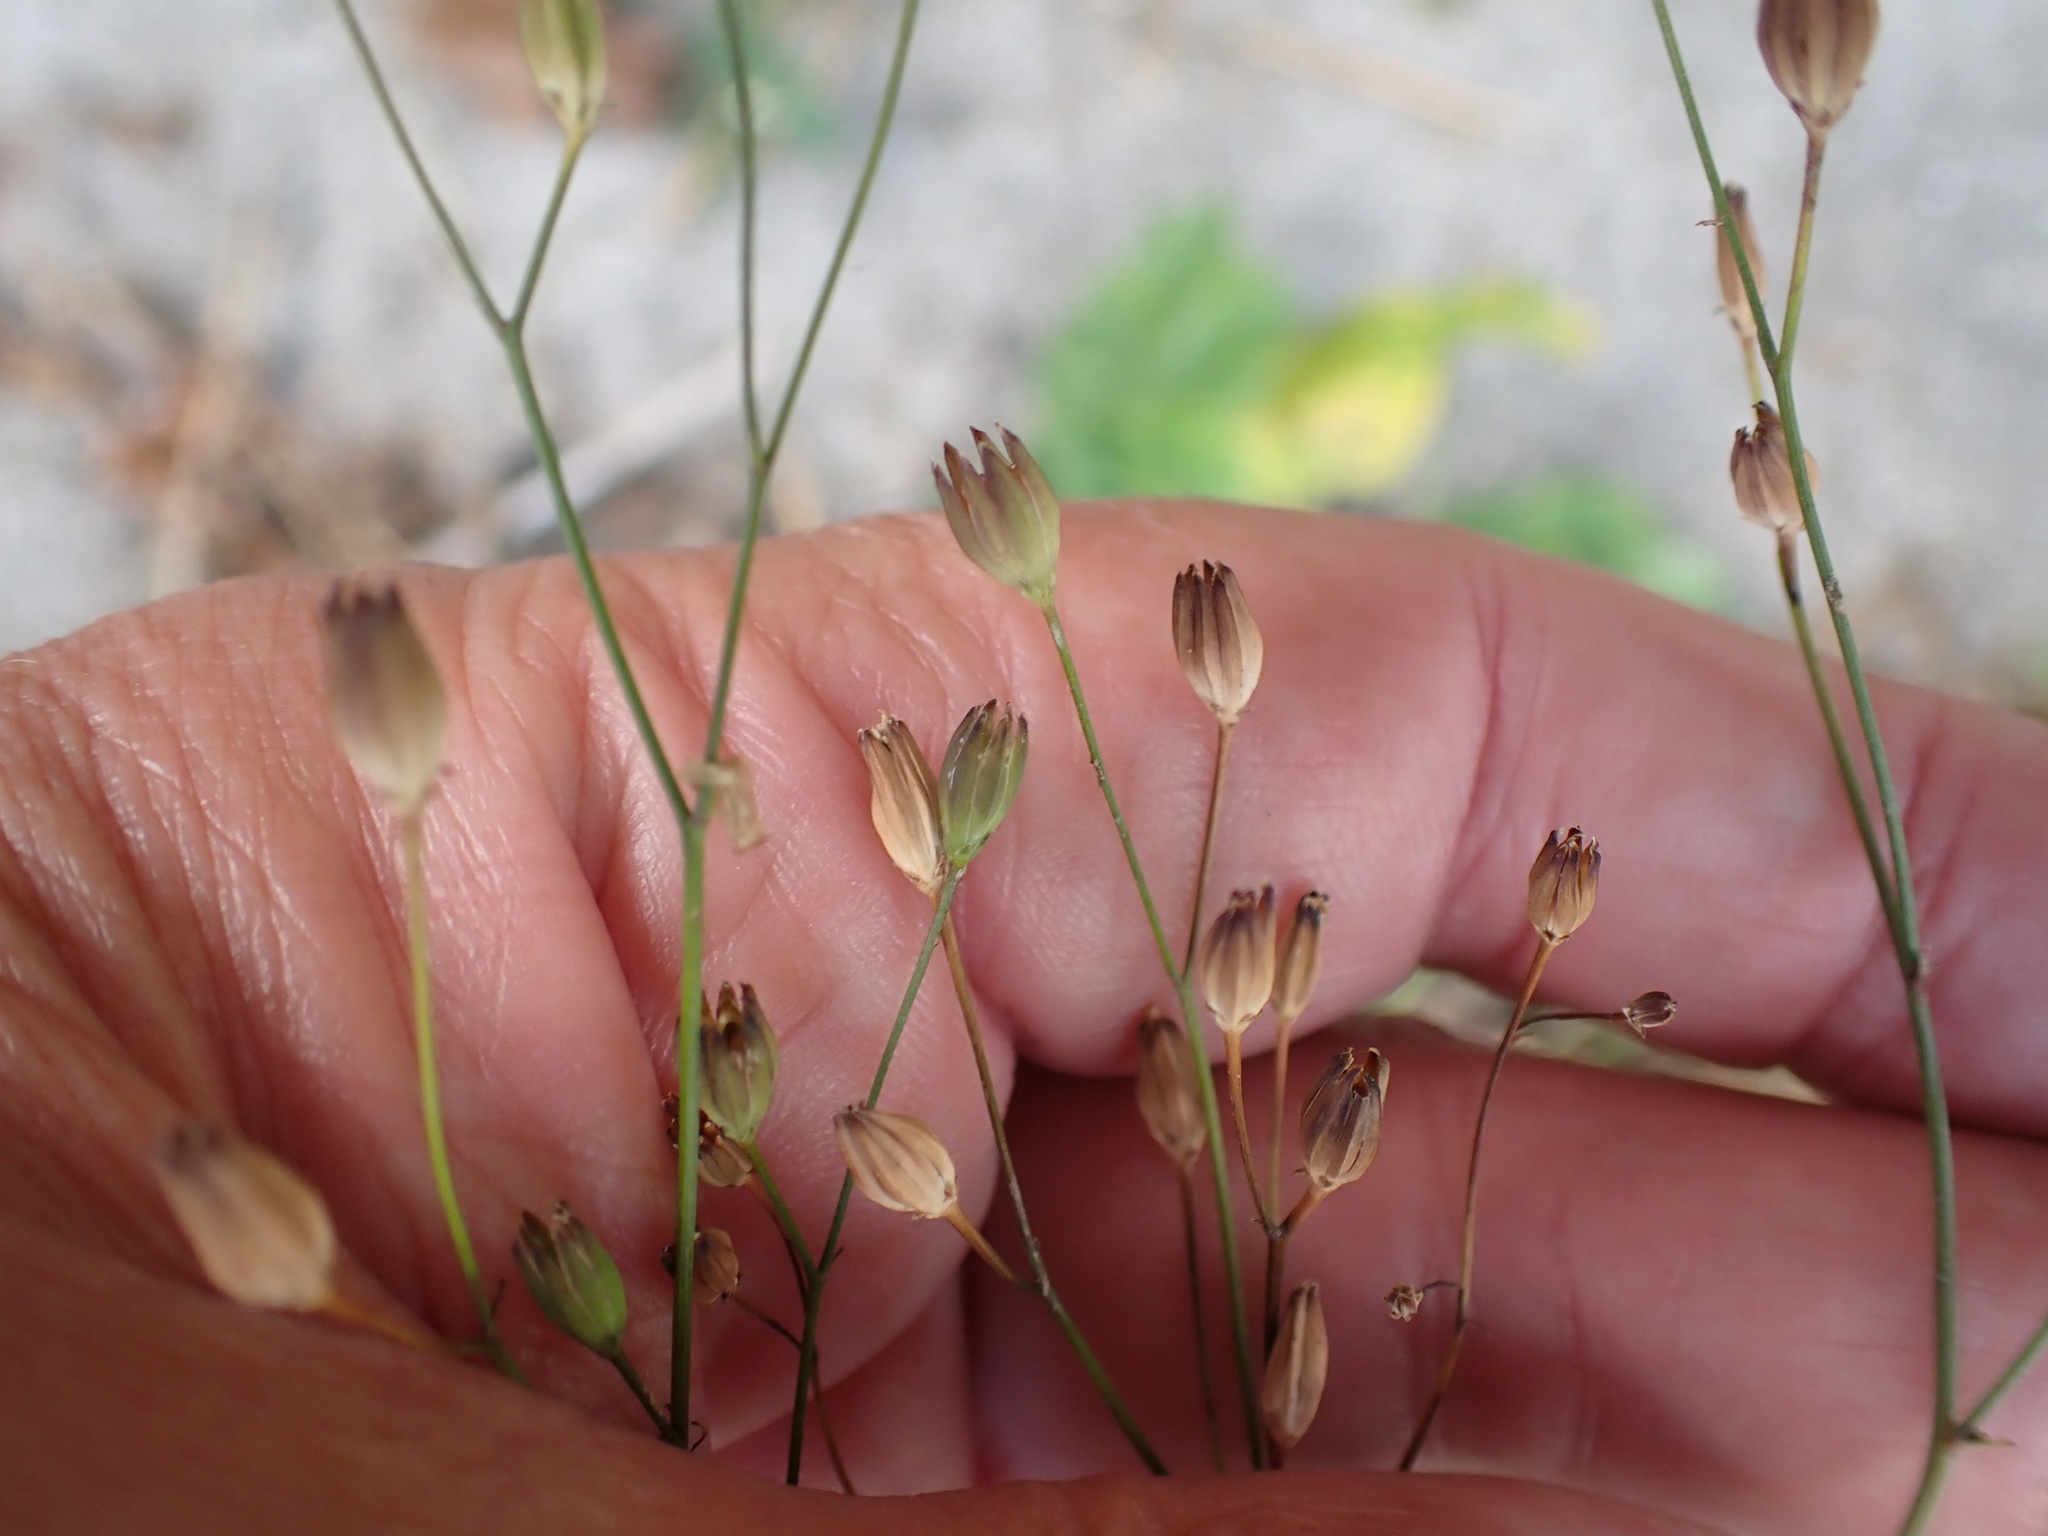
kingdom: Plantae
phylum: Tracheophyta
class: Magnoliopsida
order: Asterales
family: Asteraceae
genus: Lapsana
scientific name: Lapsana communis
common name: Nipplewort
